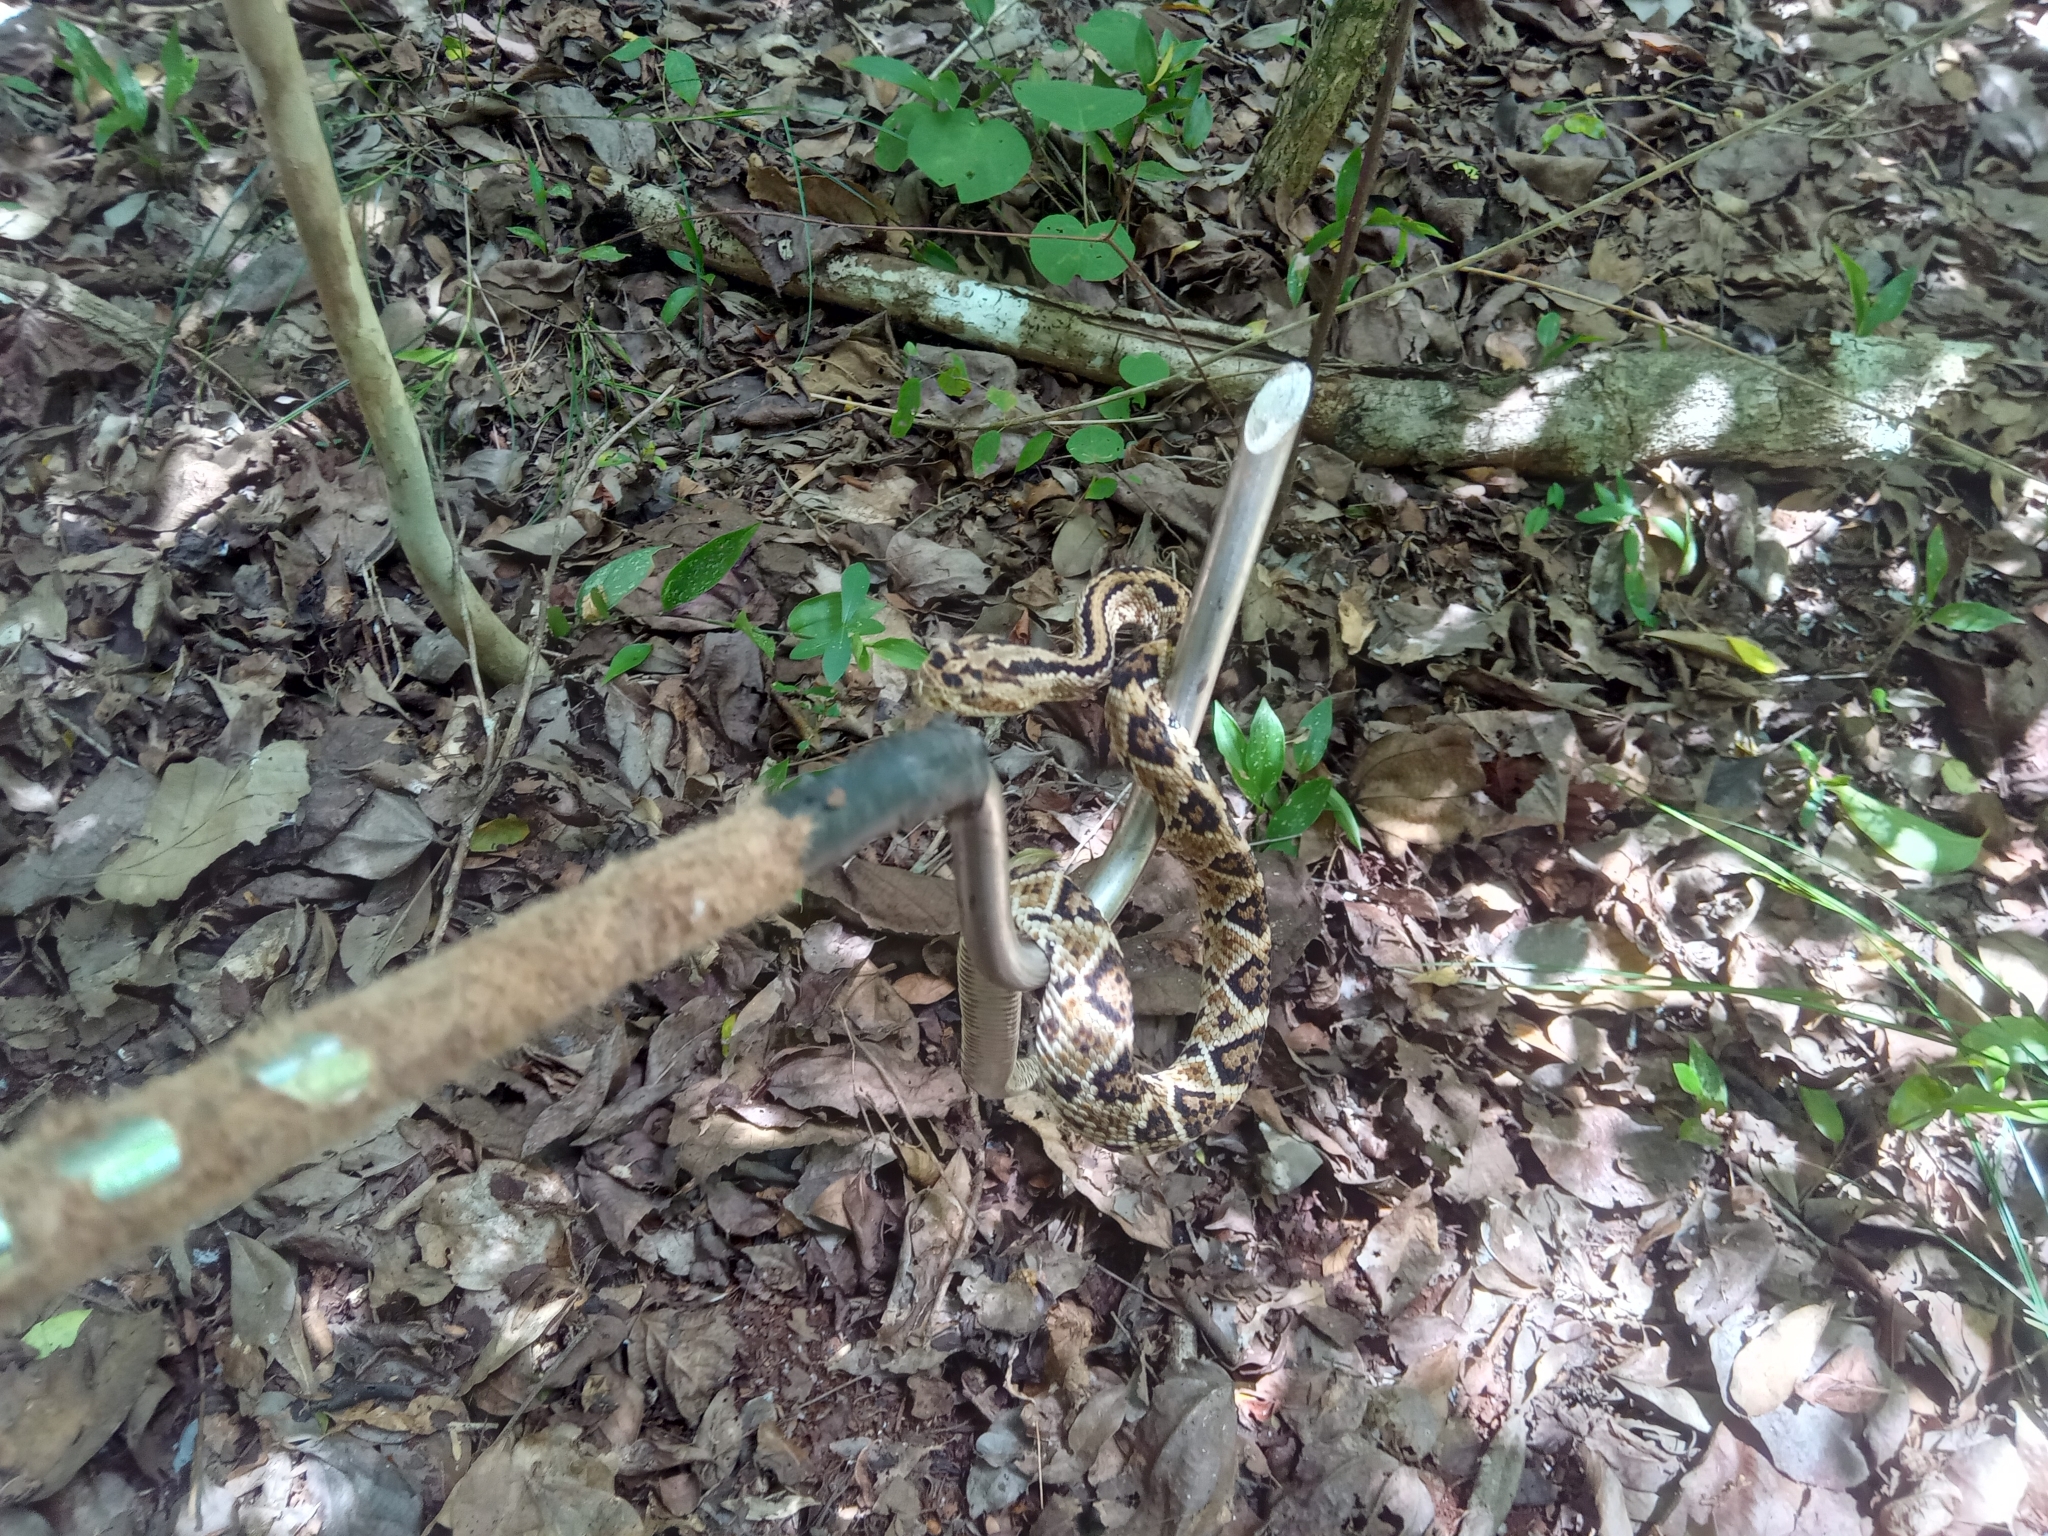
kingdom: Animalia
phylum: Chordata
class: Squamata
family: Viperidae
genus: Crotalus
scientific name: Crotalus tzabcan
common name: Yucatan neotropical rattlesnake
